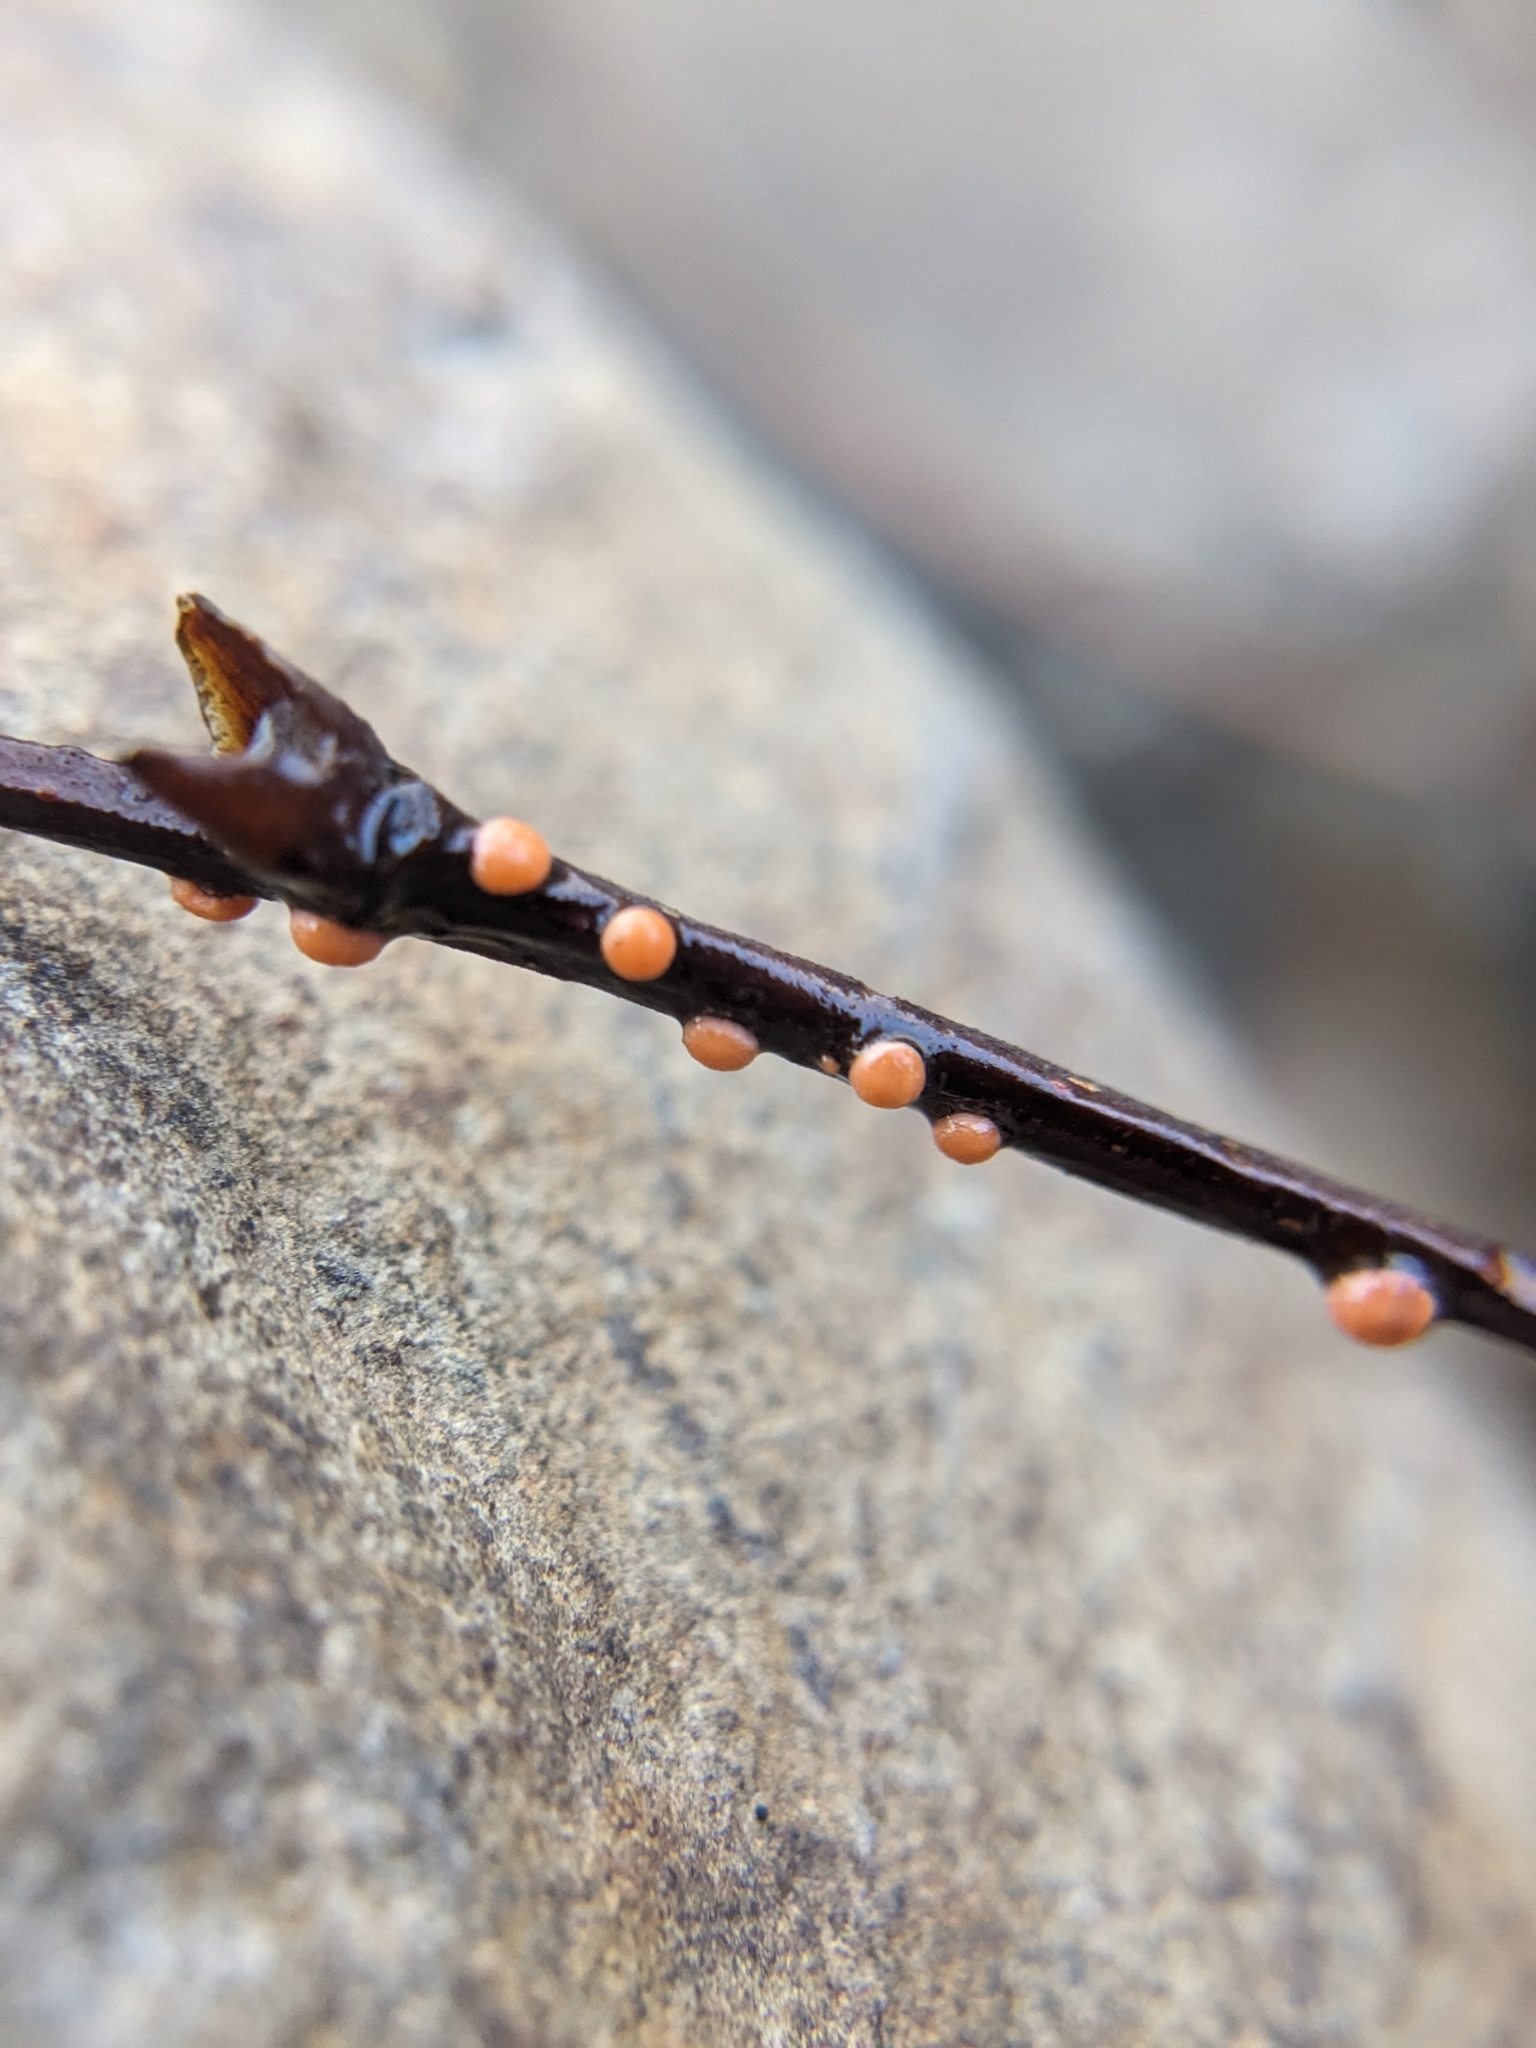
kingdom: Fungi
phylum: Ascomycota
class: Sordariomycetes
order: Hypocreales
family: Nectriaceae
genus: Nectria
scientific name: Nectria cinnabarina
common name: Coral spot
